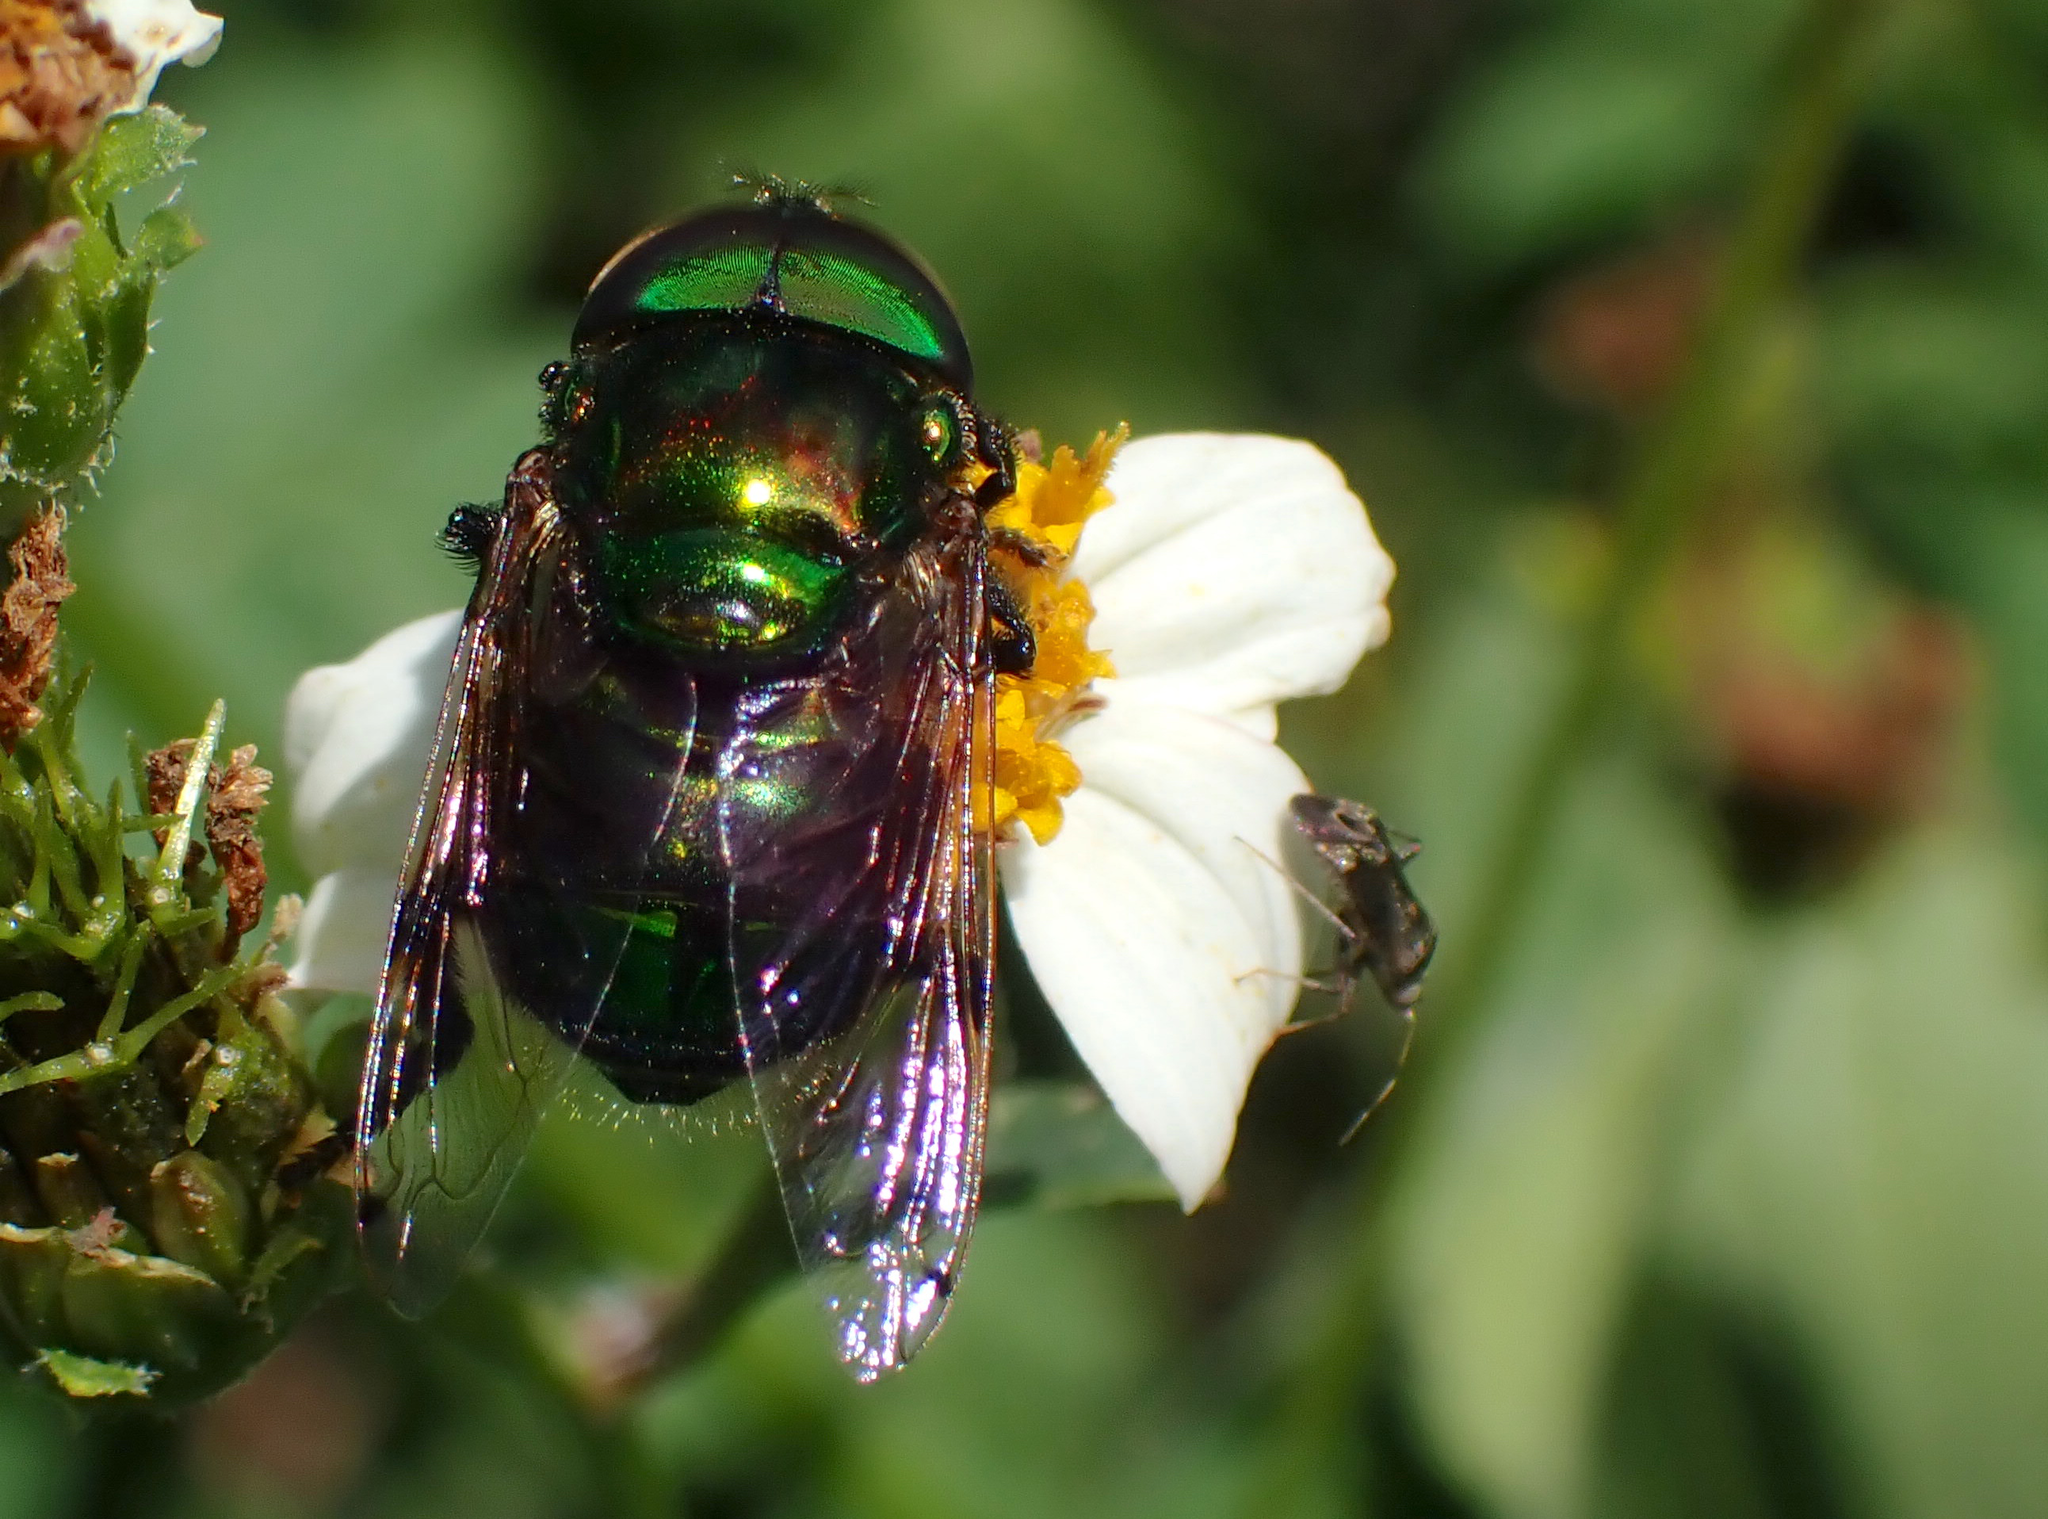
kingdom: Animalia
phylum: Arthropoda
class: Insecta
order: Diptera
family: Syrphidae
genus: Ornidia
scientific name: Ornidia obesa
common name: Syrphid fly
